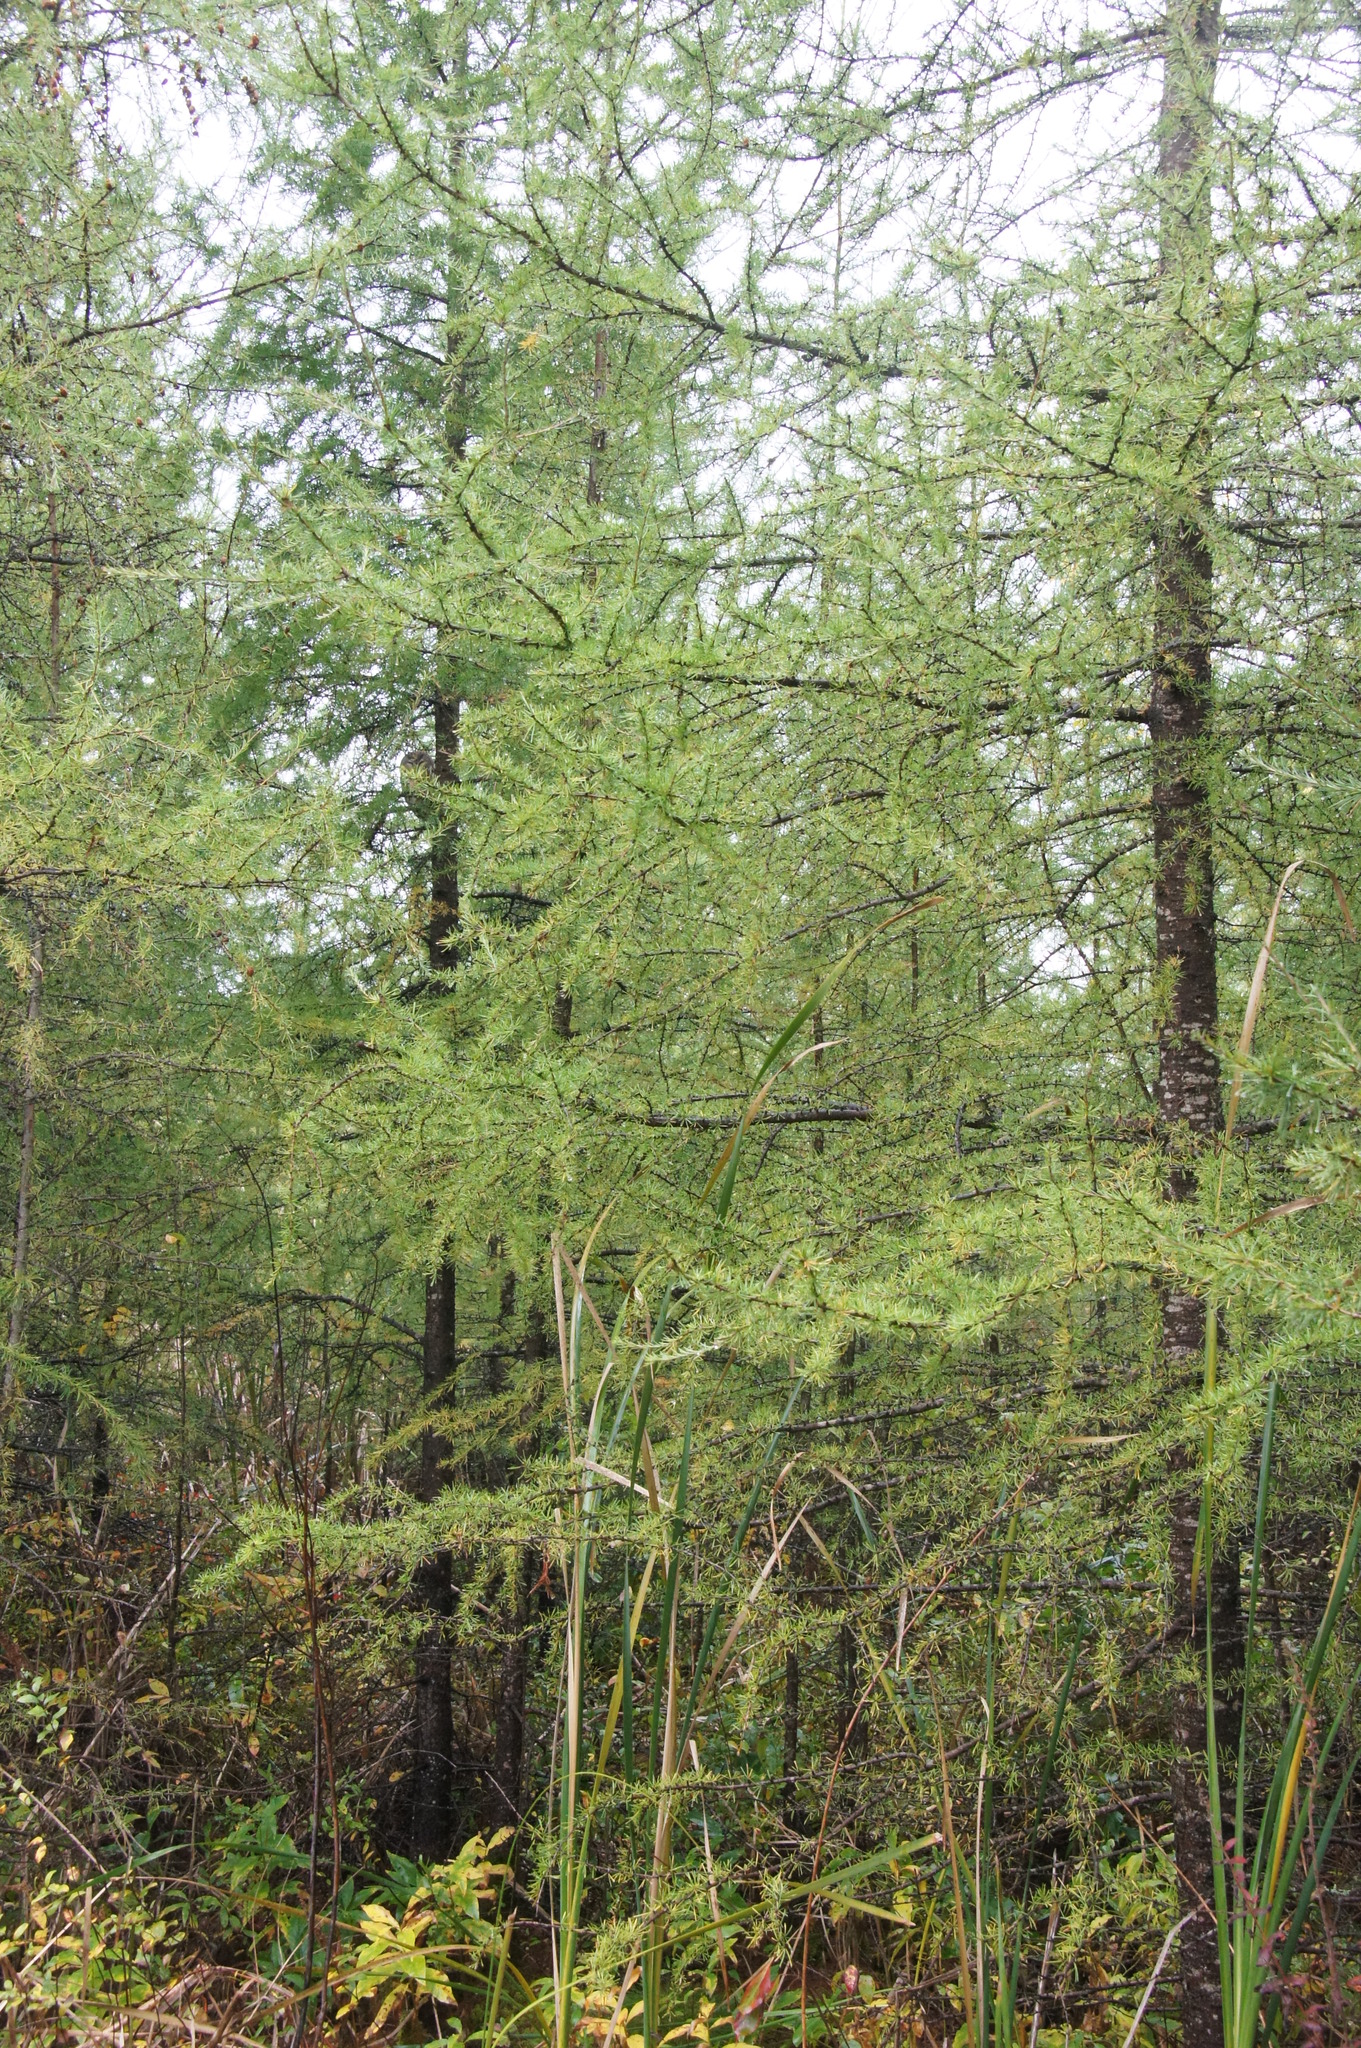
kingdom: Plantae
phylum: Tracheophyta
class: Pinopsida
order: Pinales
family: Pinaceae
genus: Larix
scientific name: Larix laricina
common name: American larch
